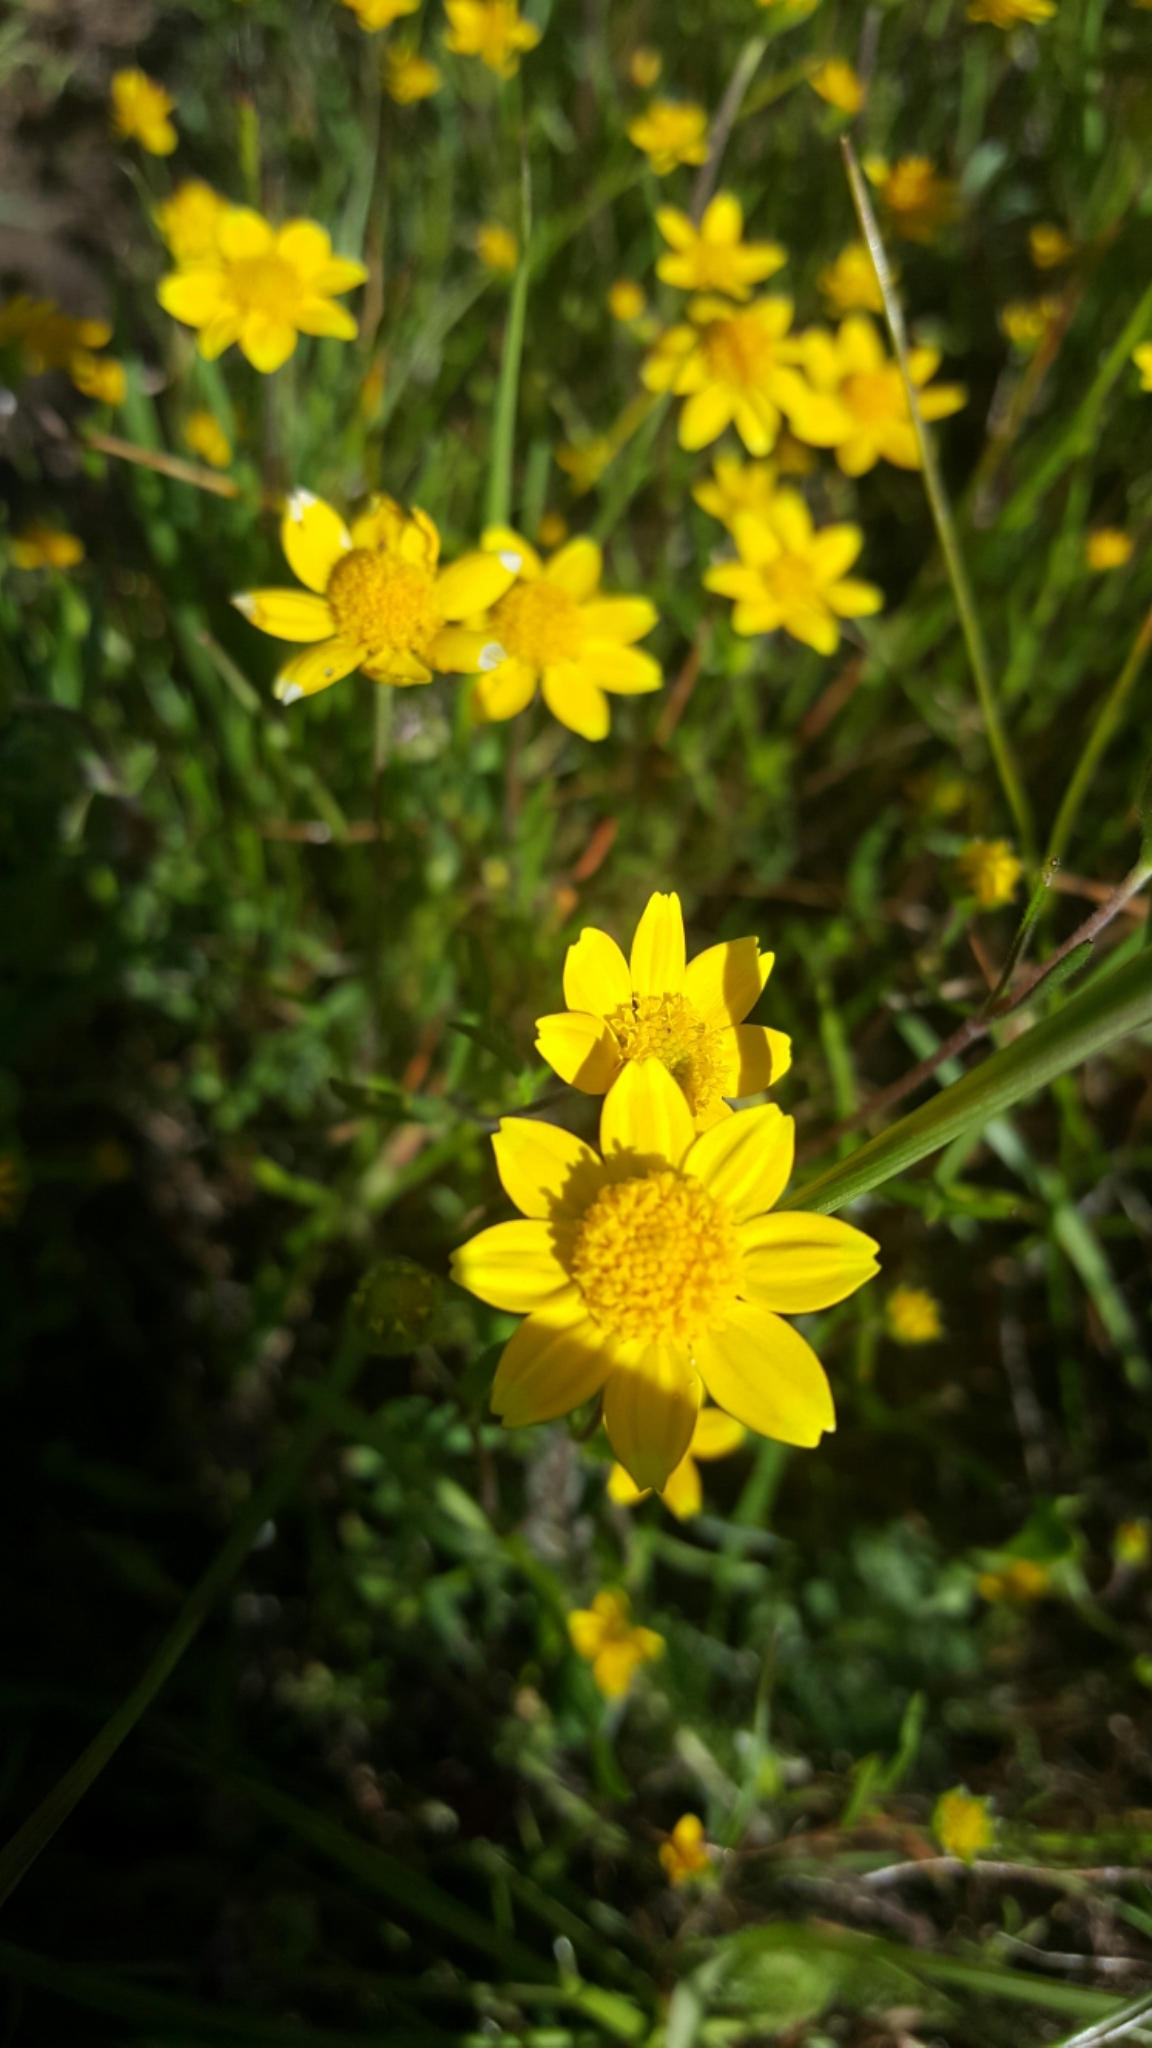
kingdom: Plantae
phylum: Tracheophyta
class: Magnoliopsida
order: Asterales
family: Asteraceae
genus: Lasthenia
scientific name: Lasthenia californica
